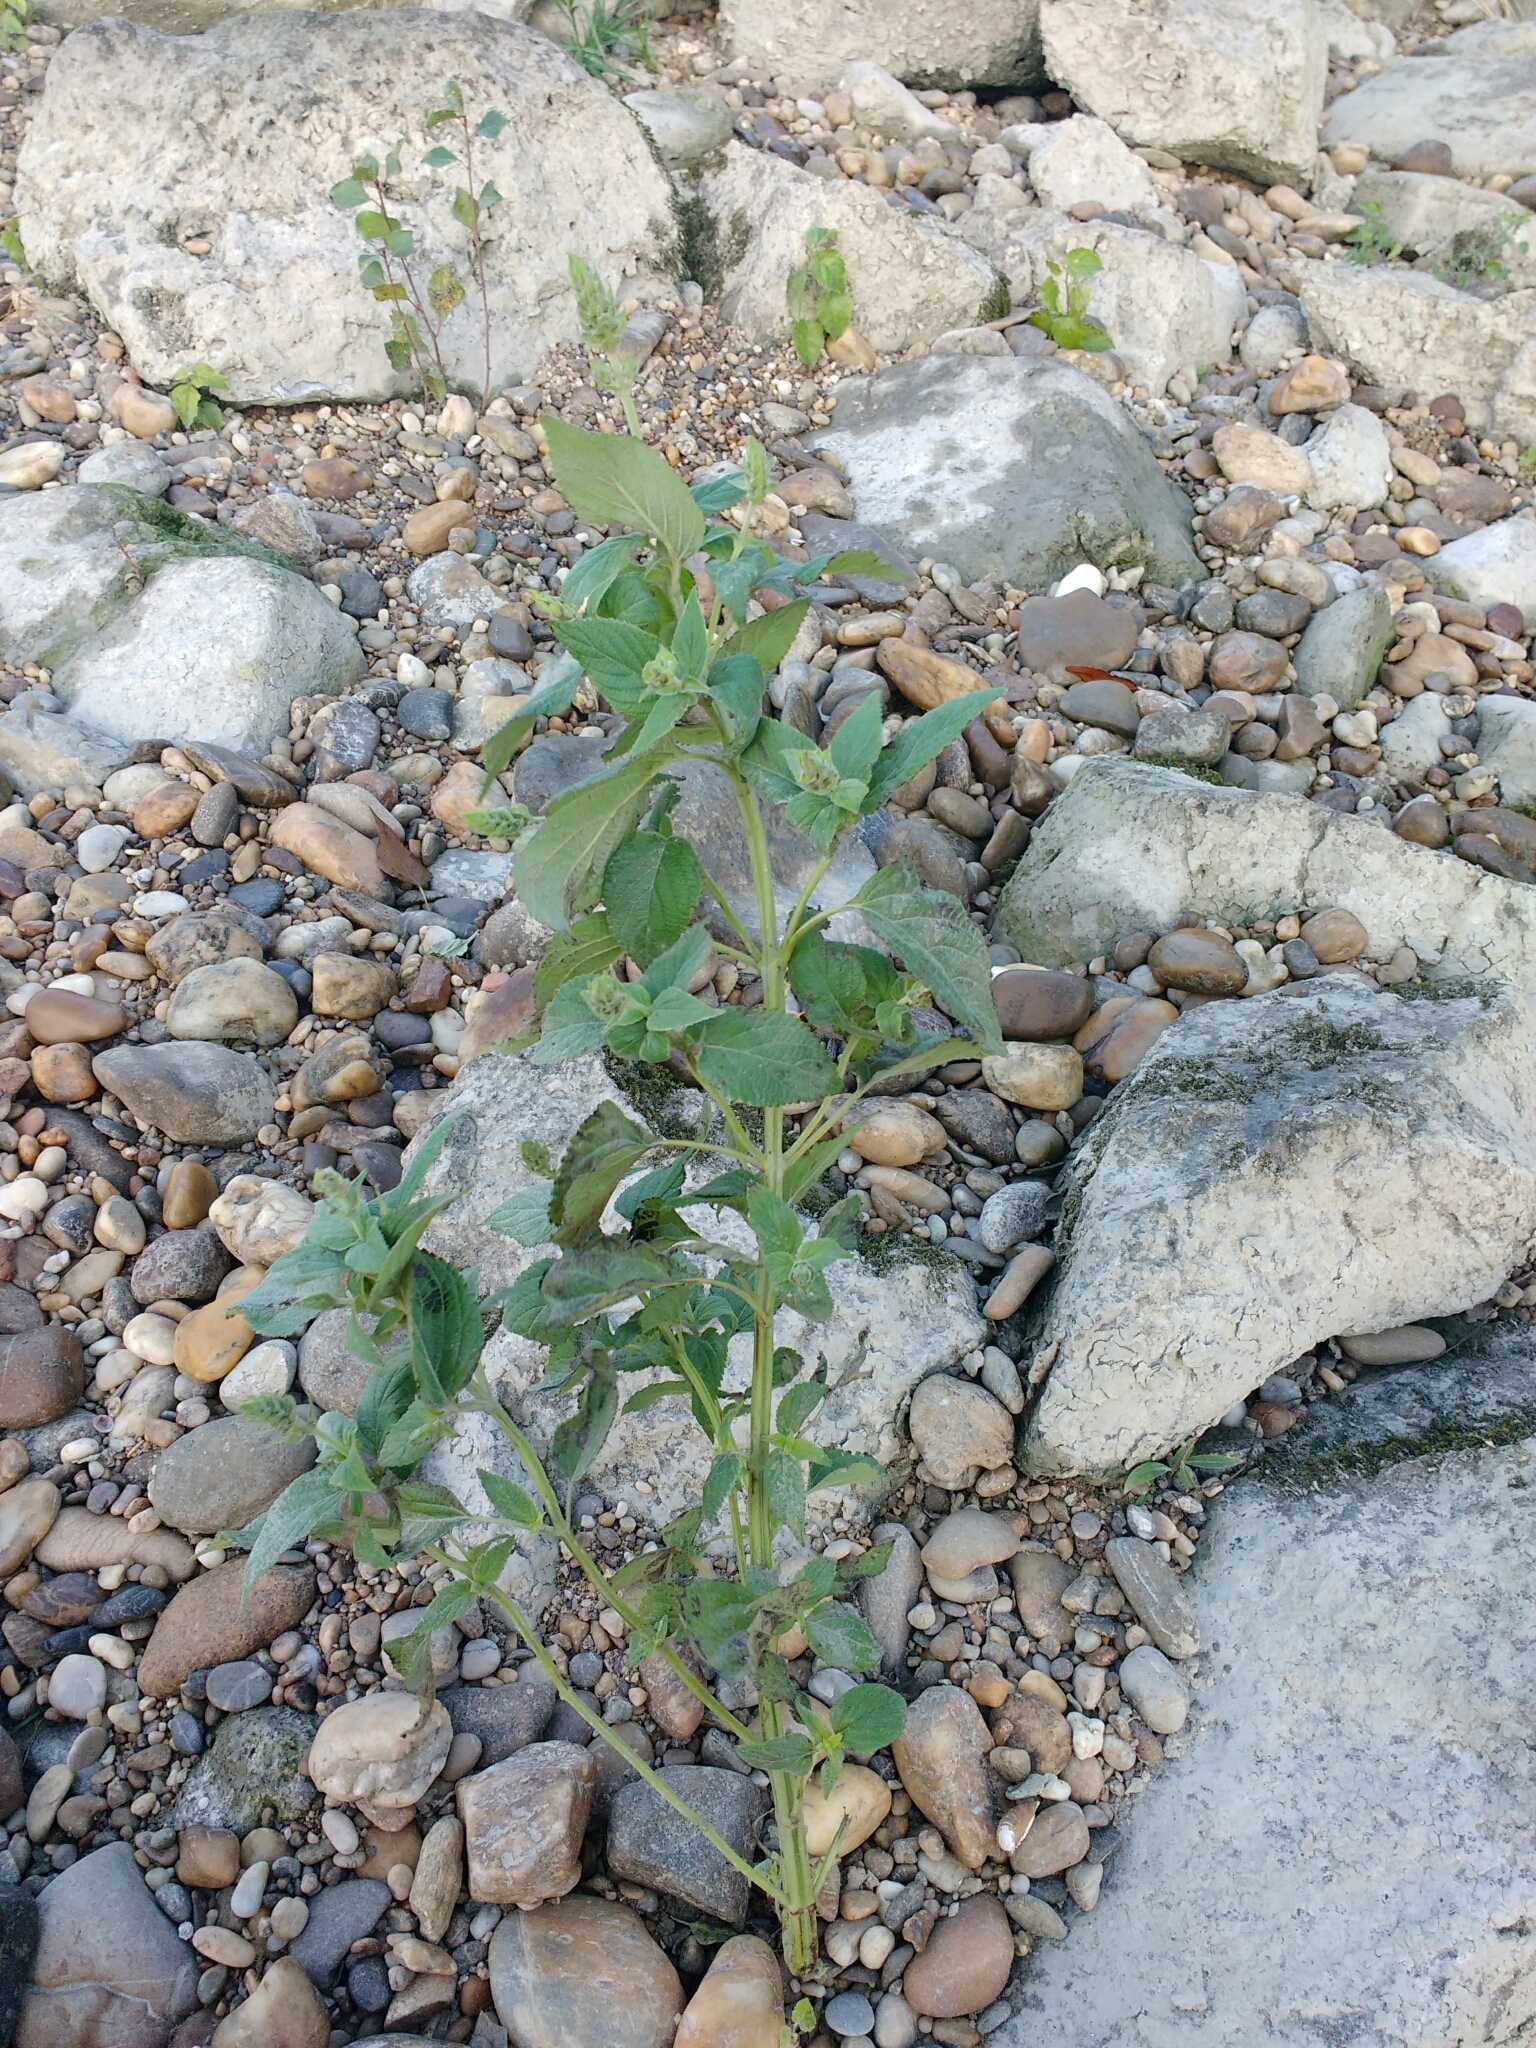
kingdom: Plantae
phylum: Tracheophyta
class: Magnoliopsida
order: Lamiales
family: Lamiaceae
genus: Salvia
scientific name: Salvia hispanica
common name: Chia
